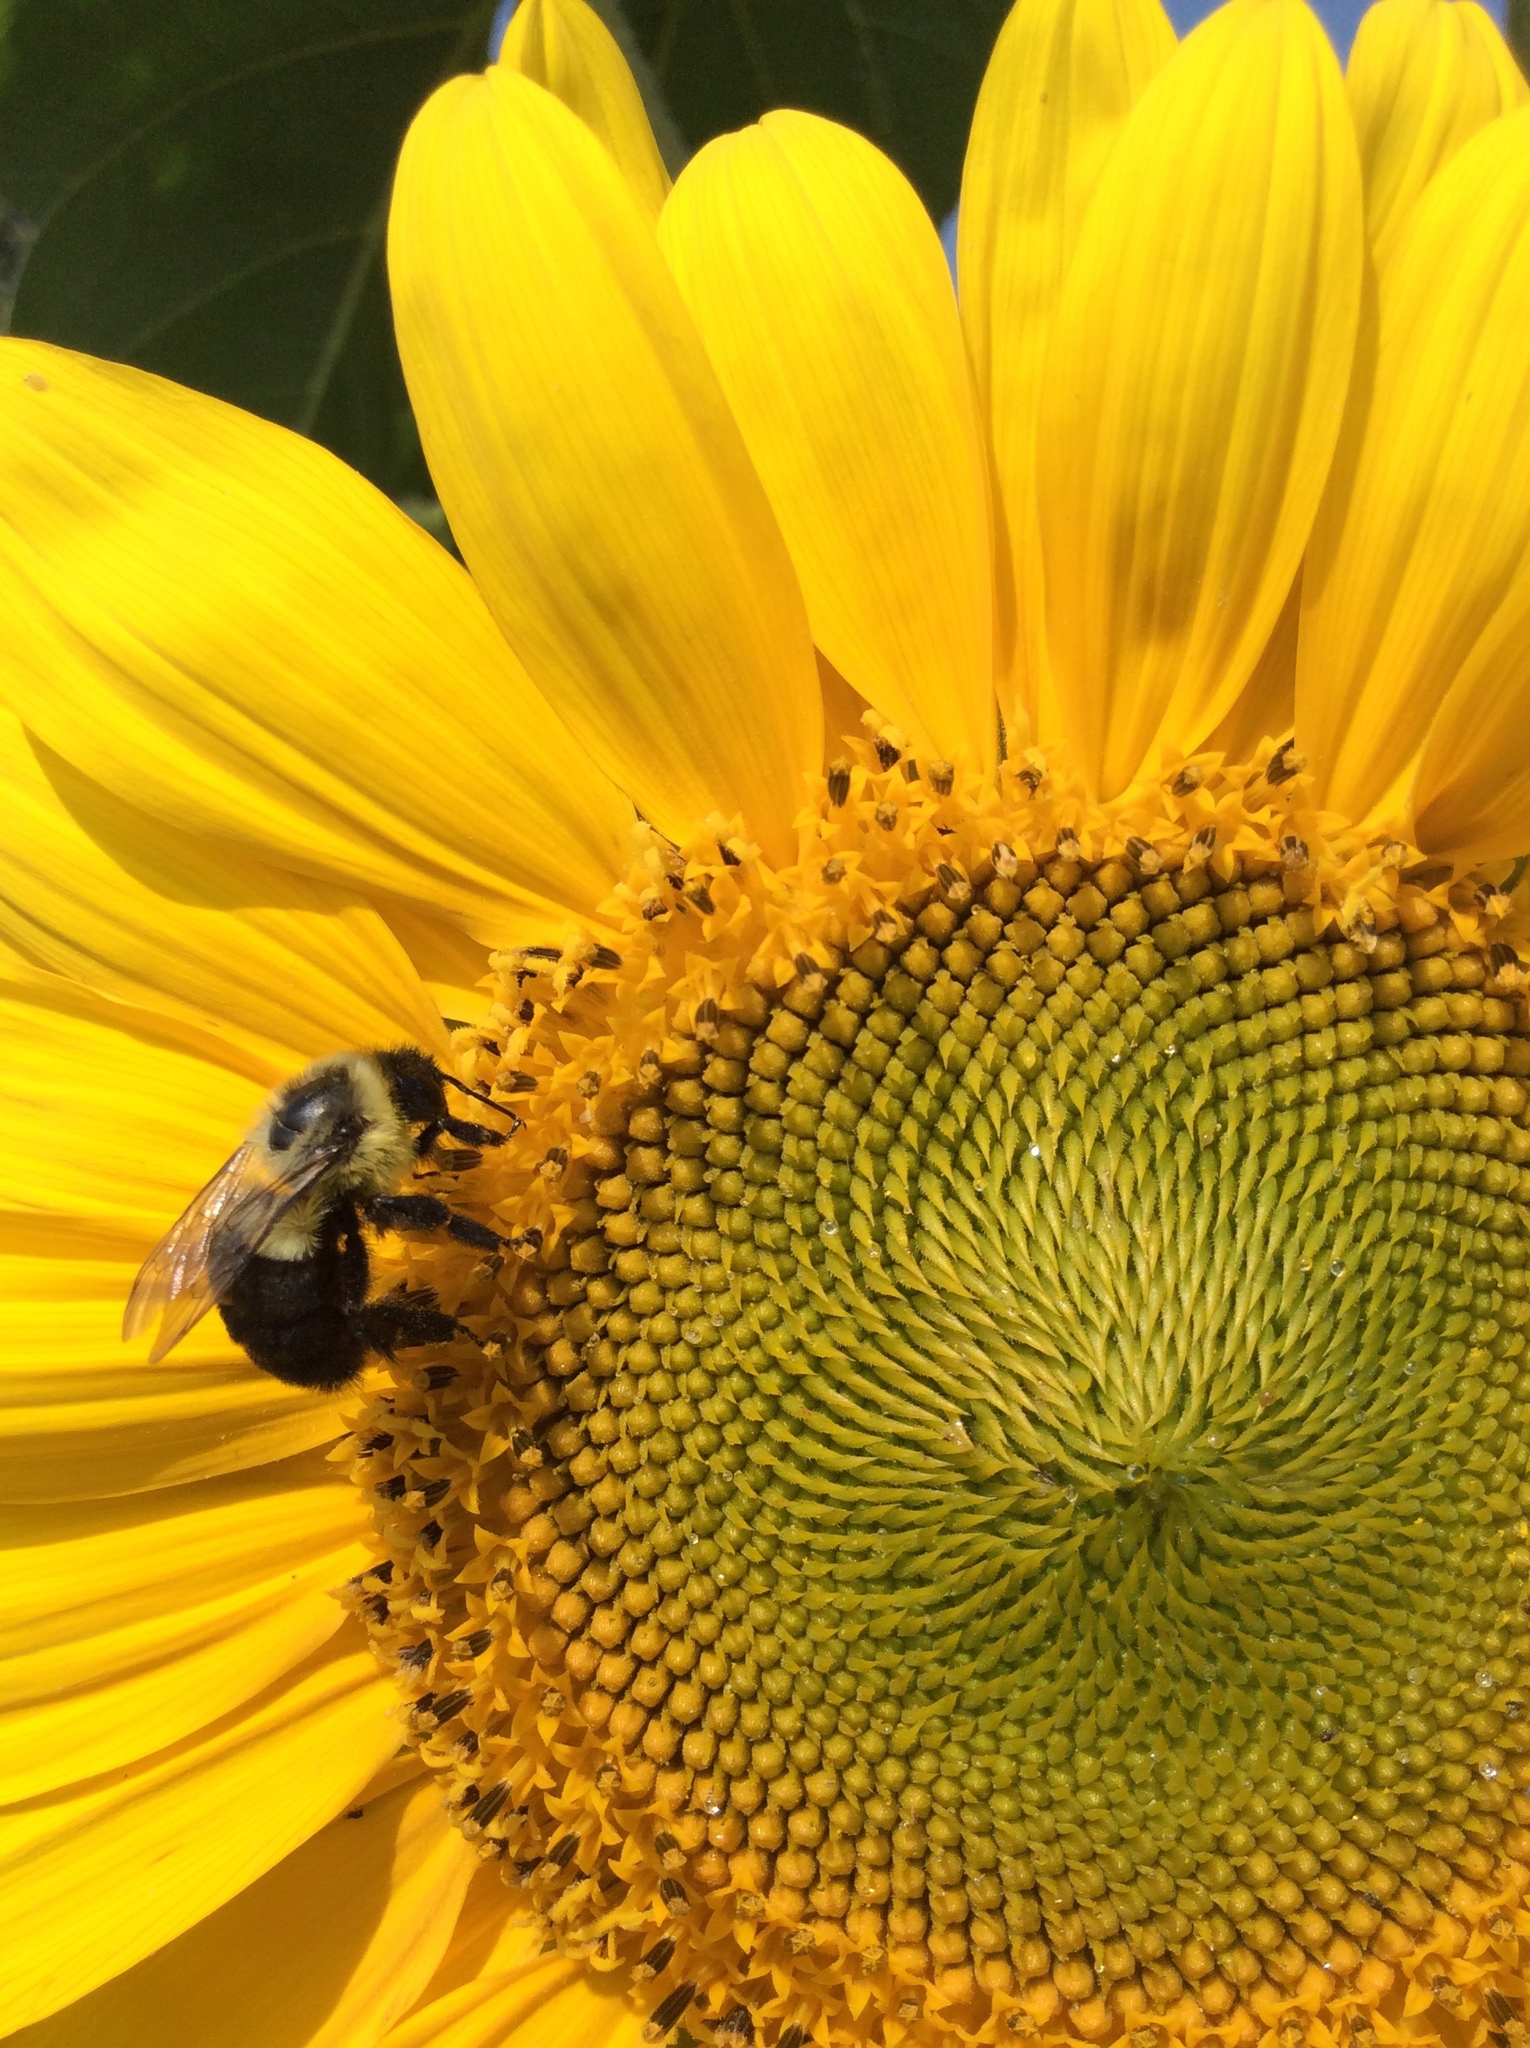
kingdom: Animalia
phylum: Arthropoda
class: Insecta
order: Hymenoptera
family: Apidae
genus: Bombus
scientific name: Bombus impatiens
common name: Common eastern bumble bee
